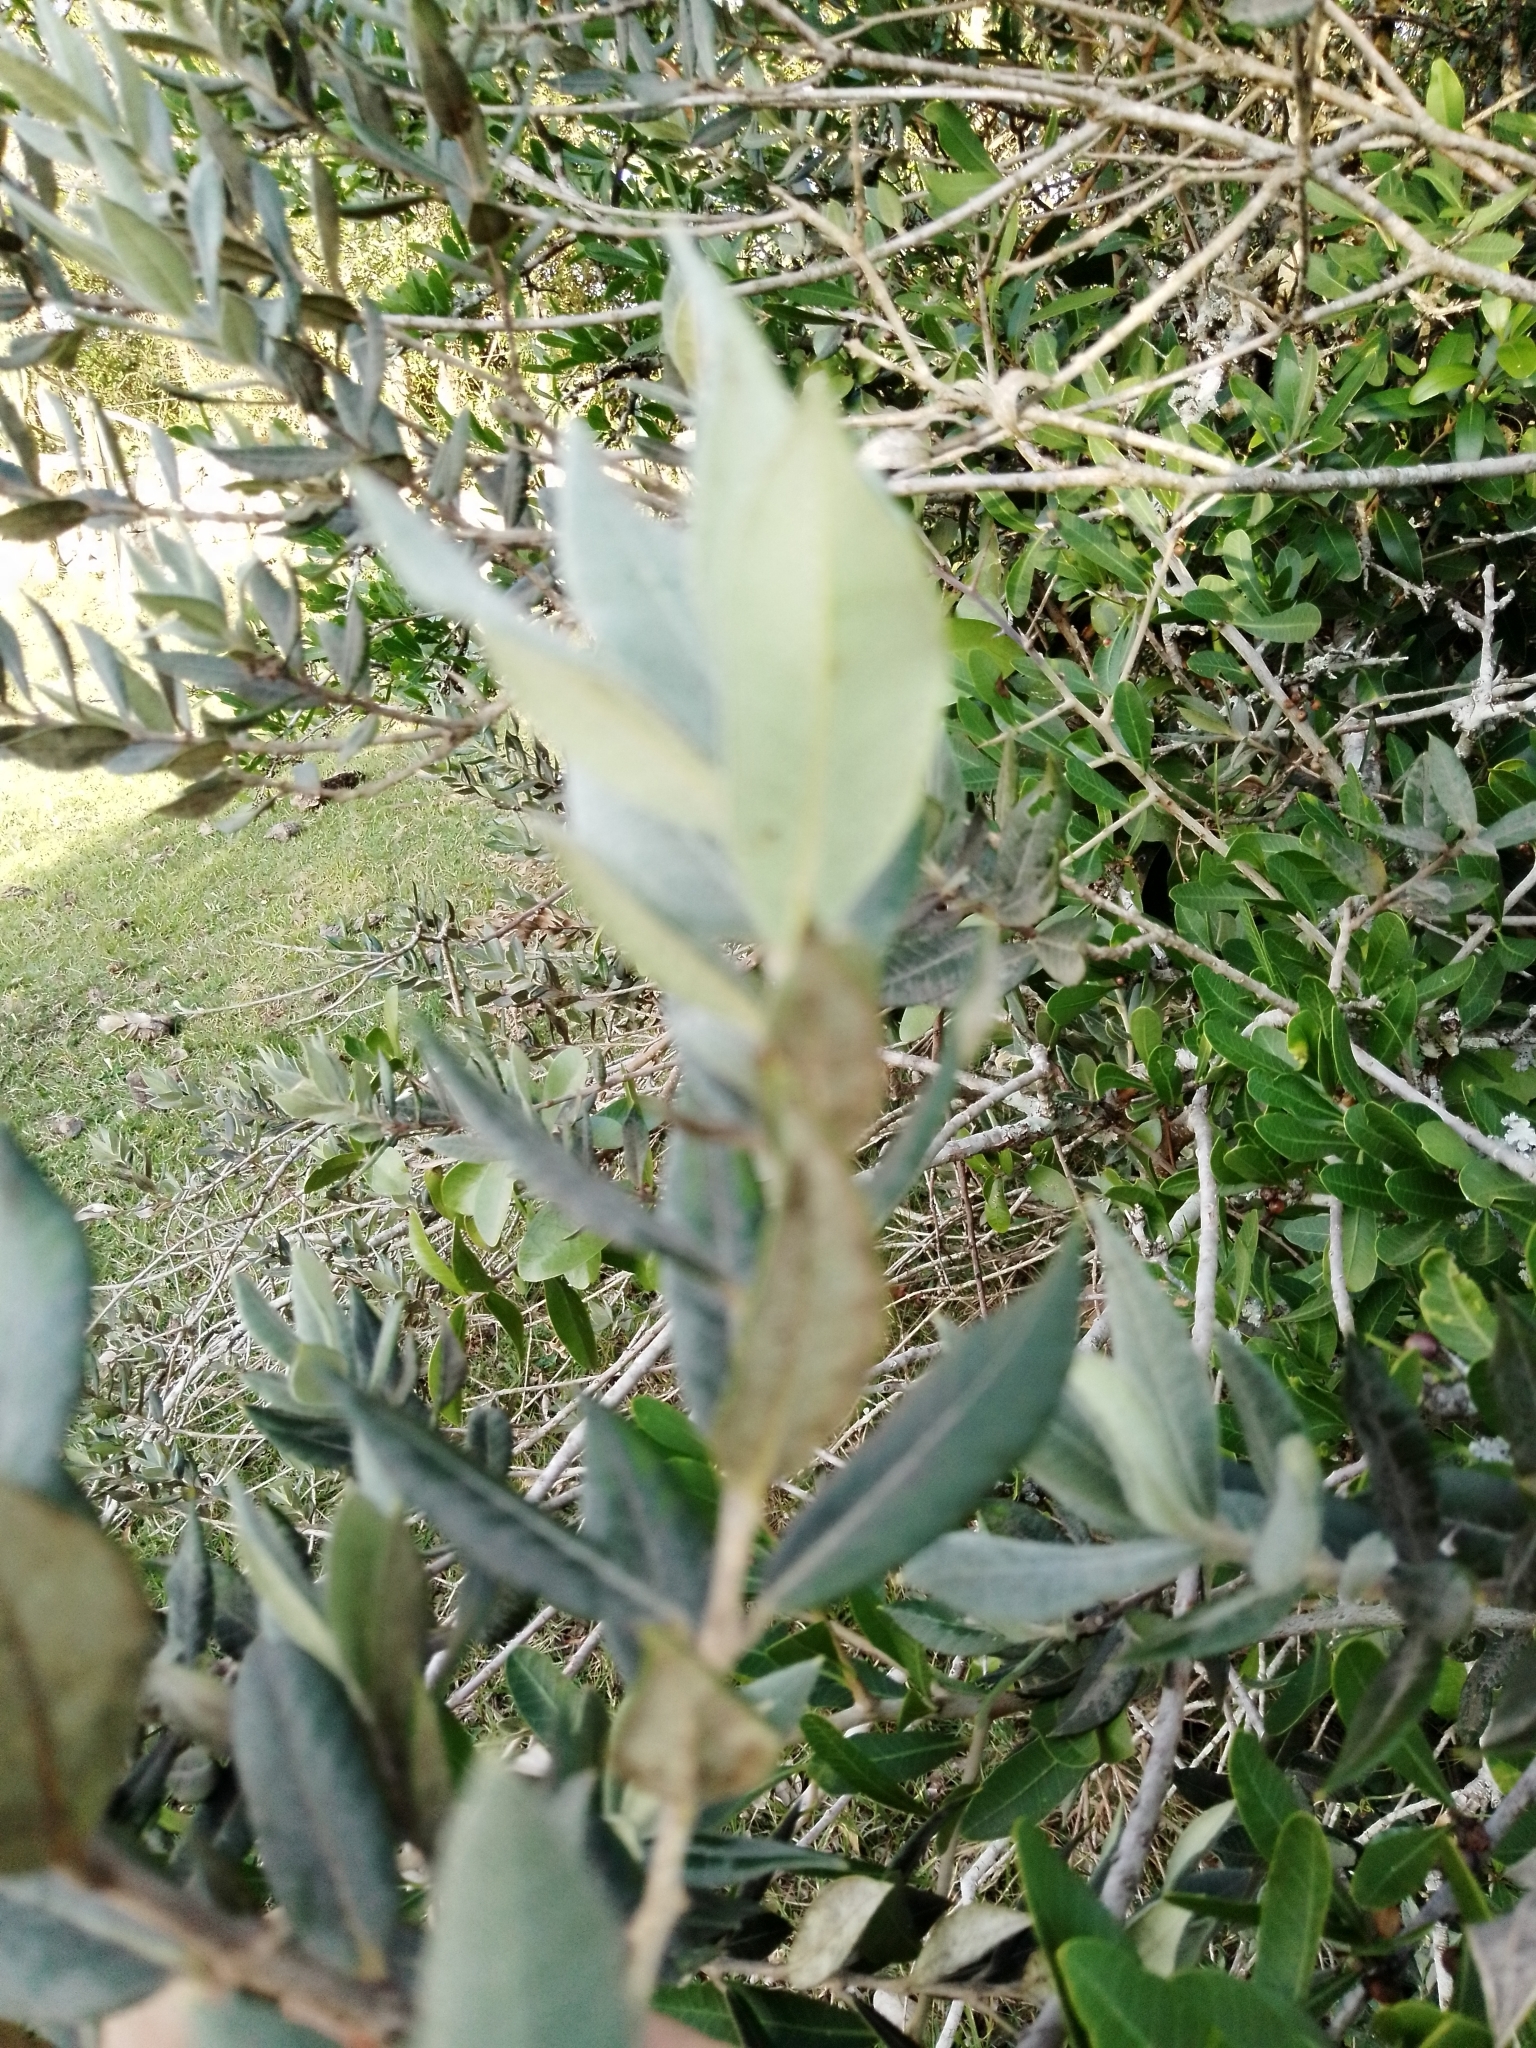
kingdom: Plantae
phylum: Tracheophyta
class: Magnoliopsida
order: Myrtales
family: Myrtaceae
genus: Myrceugenia
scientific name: Myrceugenia myrtoides
